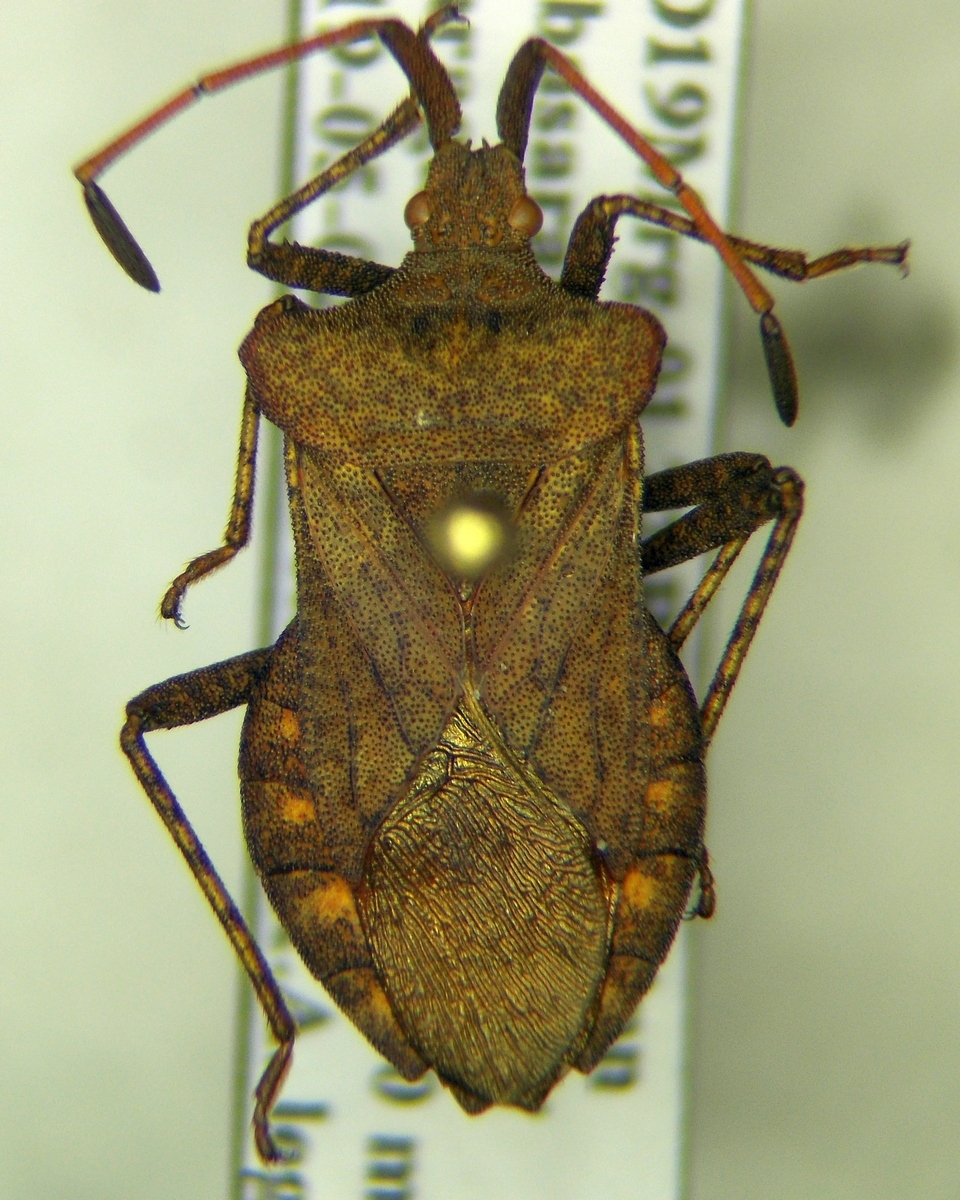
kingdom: Animalia
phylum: Arthropoda
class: Insecta
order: Hemiptera
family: Coreidae
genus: Coreus
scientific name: Coreus marginatus
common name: Dock bug
